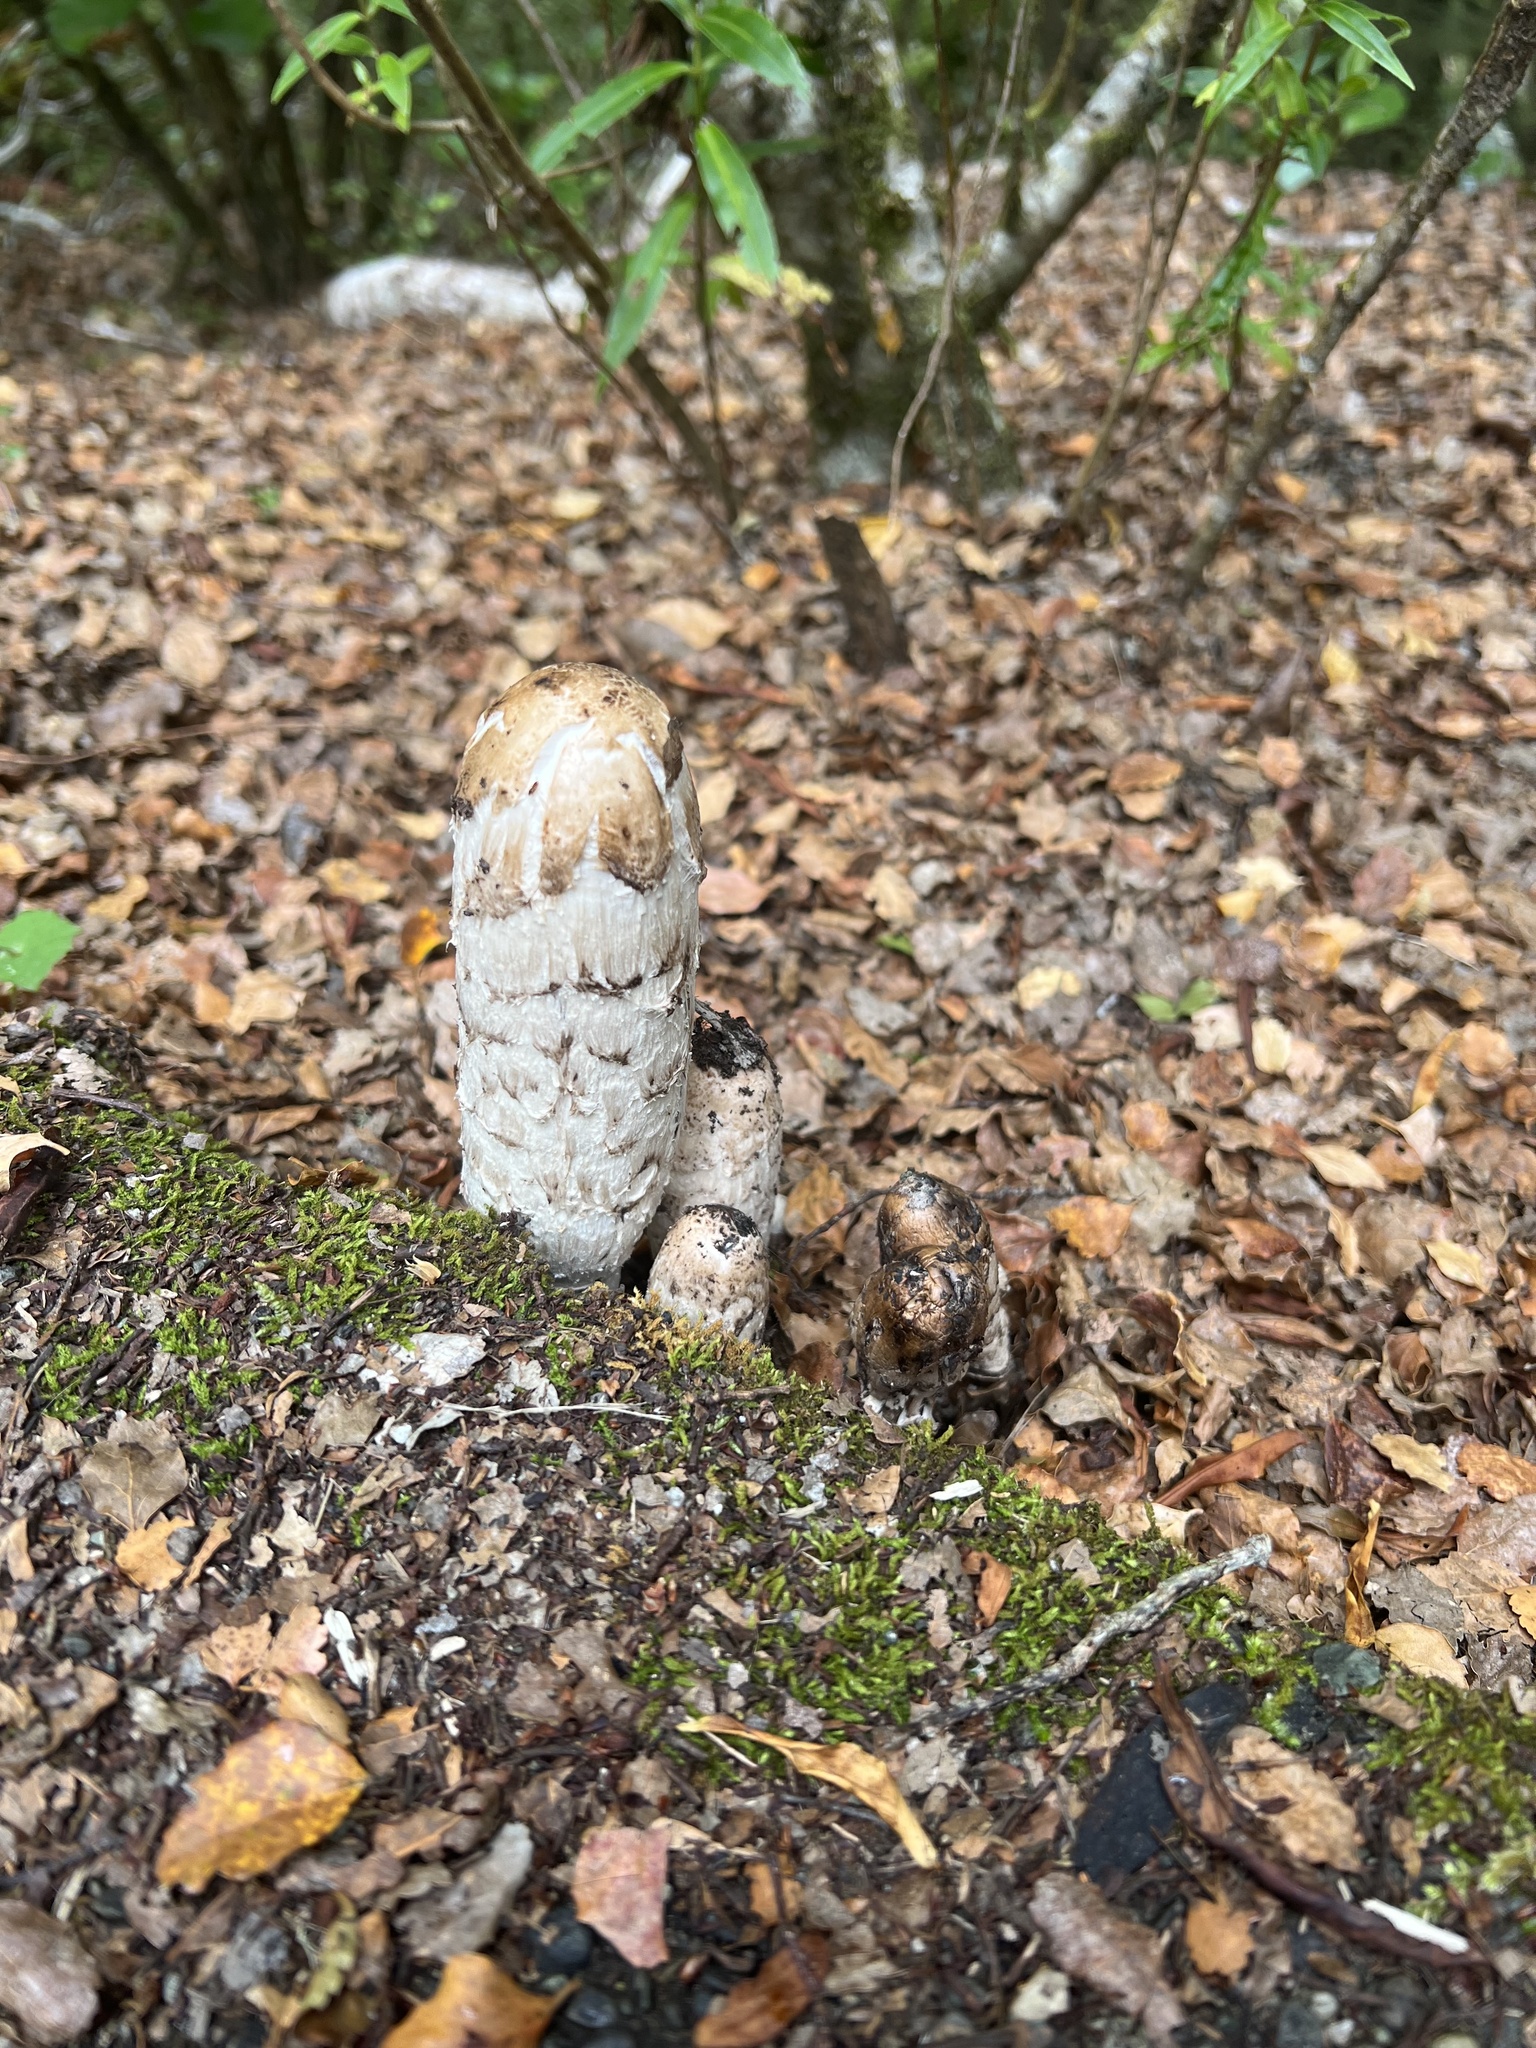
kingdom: Fungi
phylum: Basidiomycota
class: Agaricomycetes
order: Agaricales
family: Agaricaceae
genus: Coprinus
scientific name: Coprinus comatus
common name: Lawyer's wig
